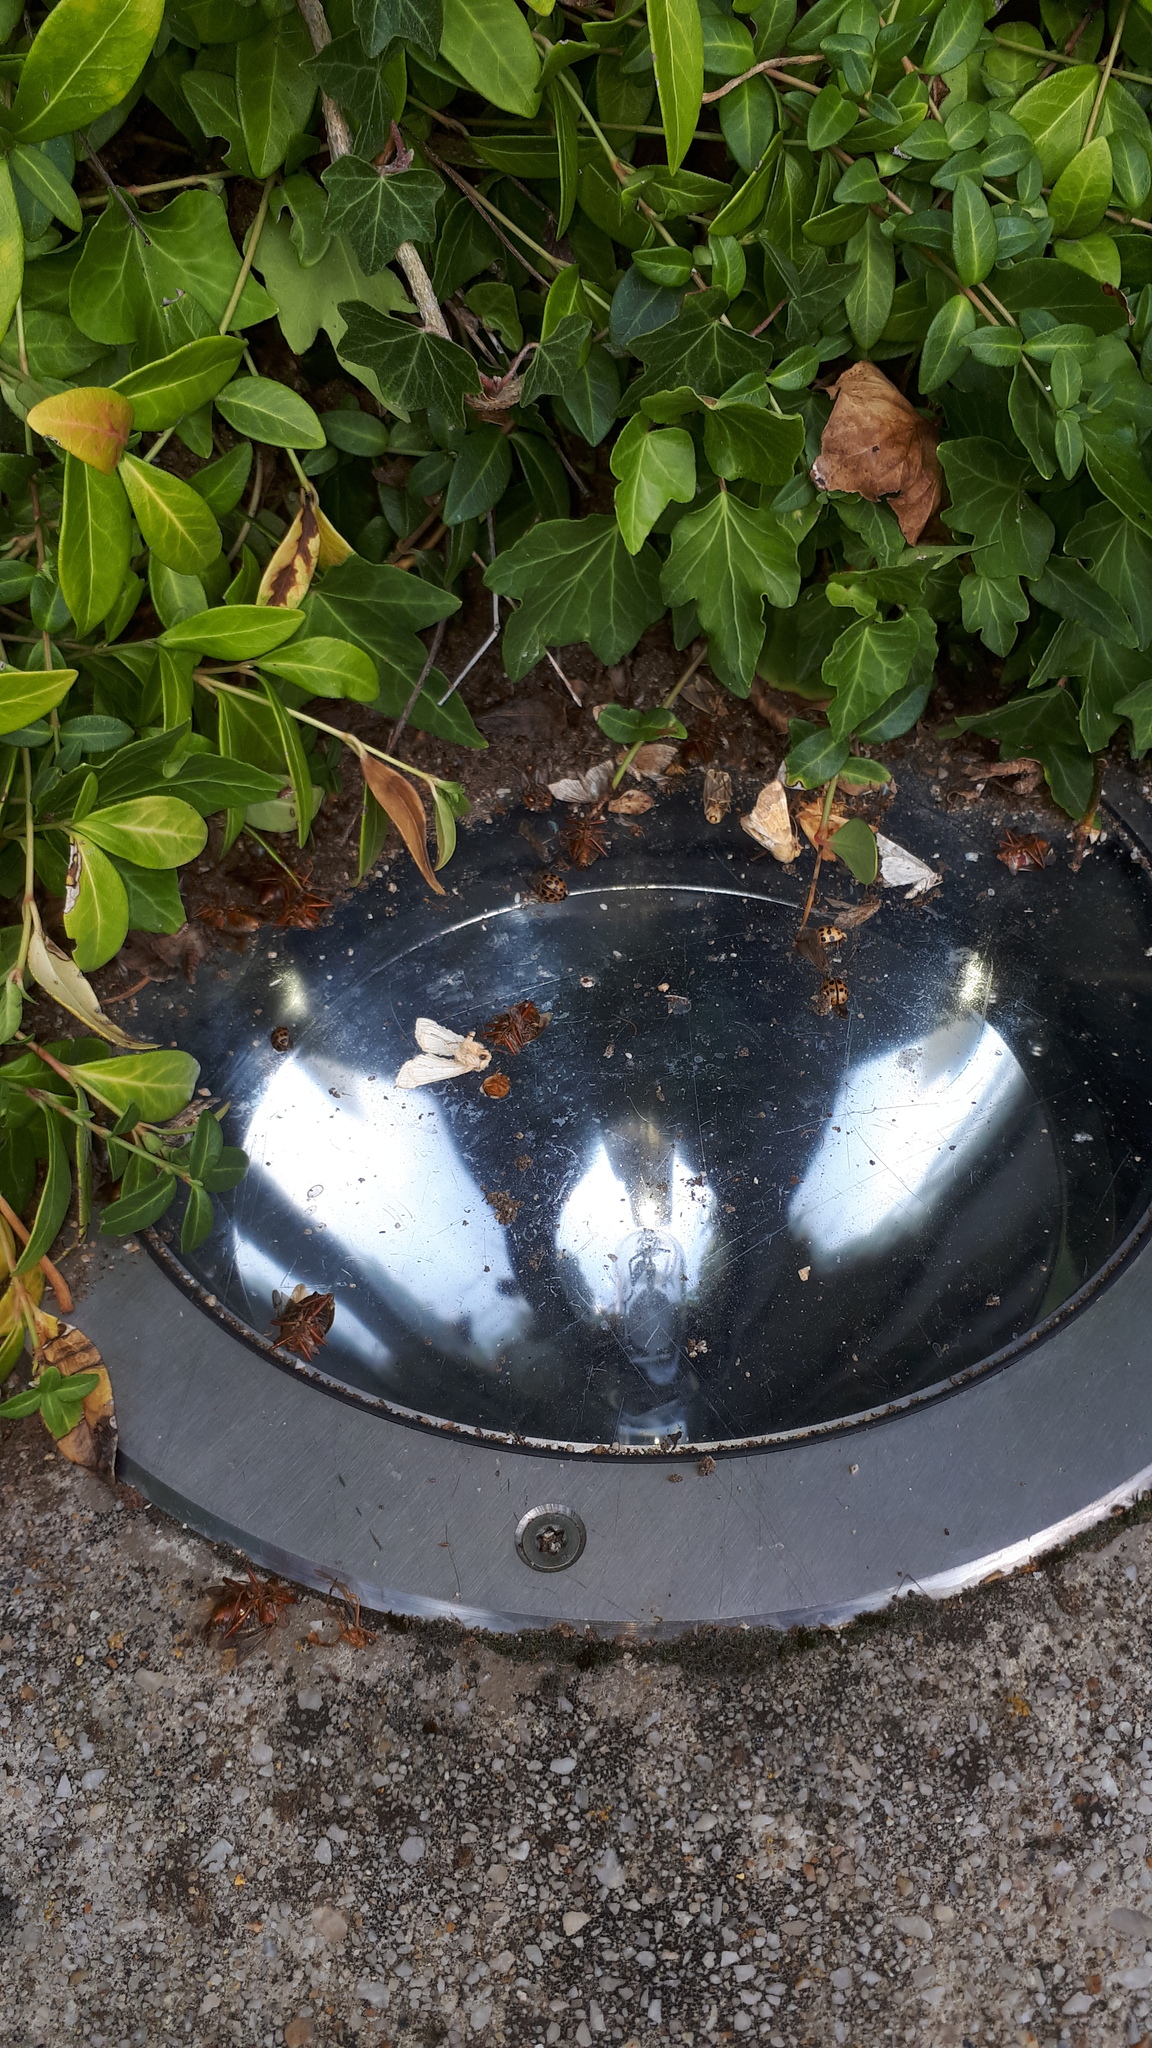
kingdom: Animalia
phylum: Arthropoda
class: Insecta
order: Hemiptera
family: Pentatomidae
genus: Pentatoma
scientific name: Pentatoma rufipes
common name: Forest bug
